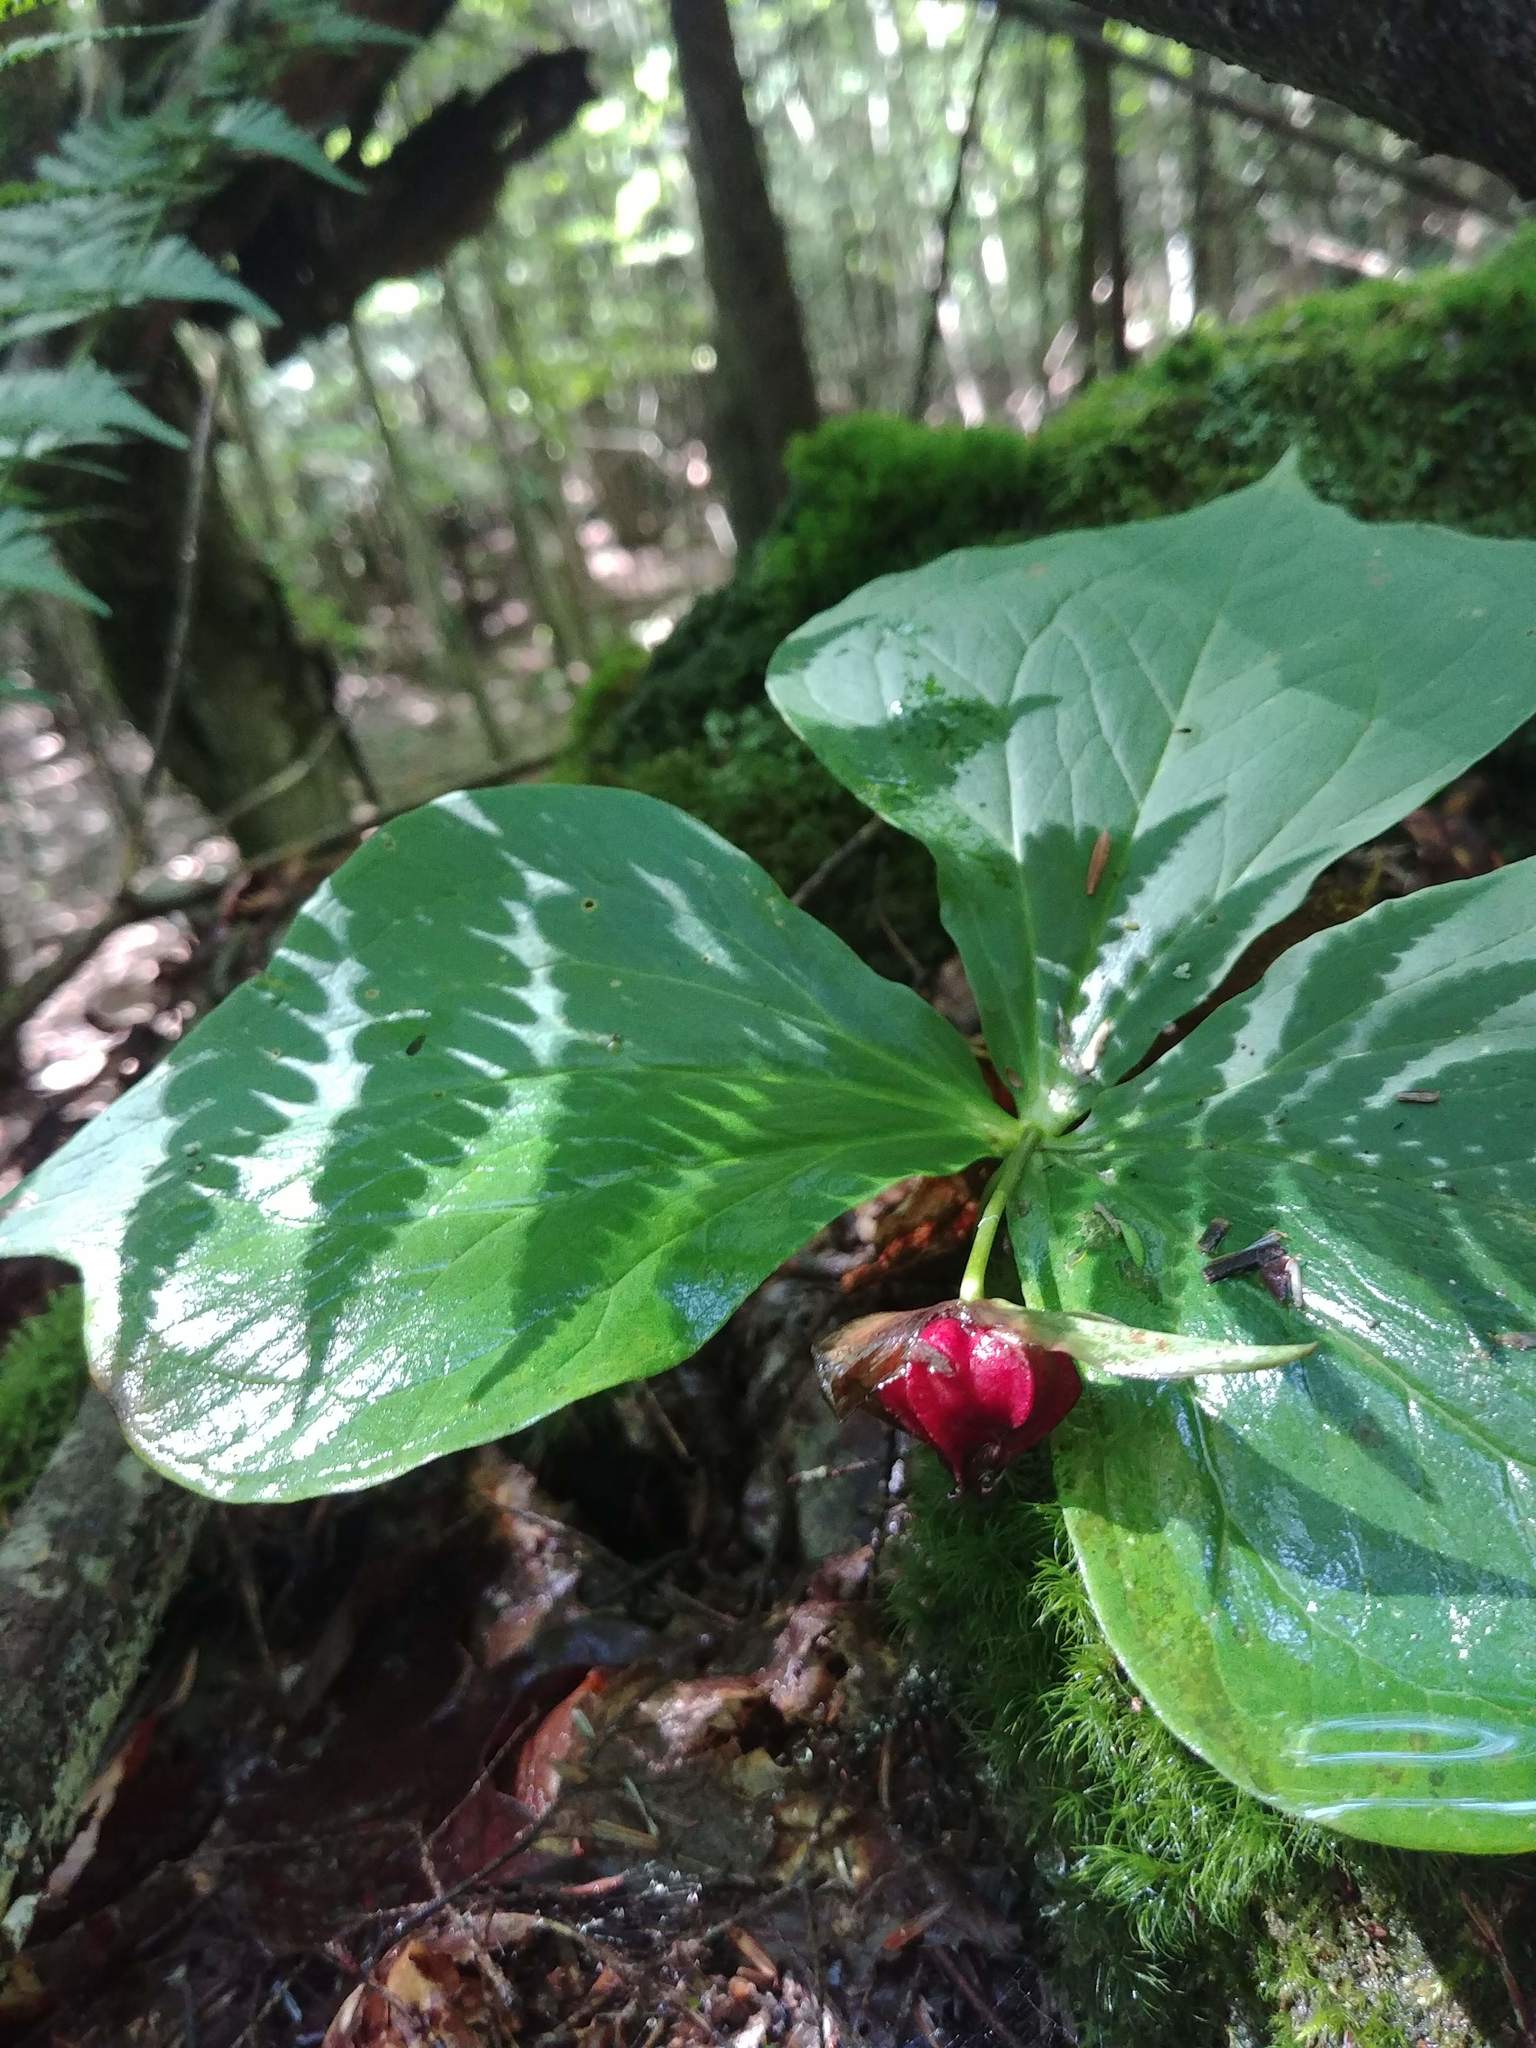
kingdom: Plantae
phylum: Tracheophyta
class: Liliopsida
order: Liliales
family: Melanthiaceae
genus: Trillium
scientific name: Trillium erectum
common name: Purple trillium
